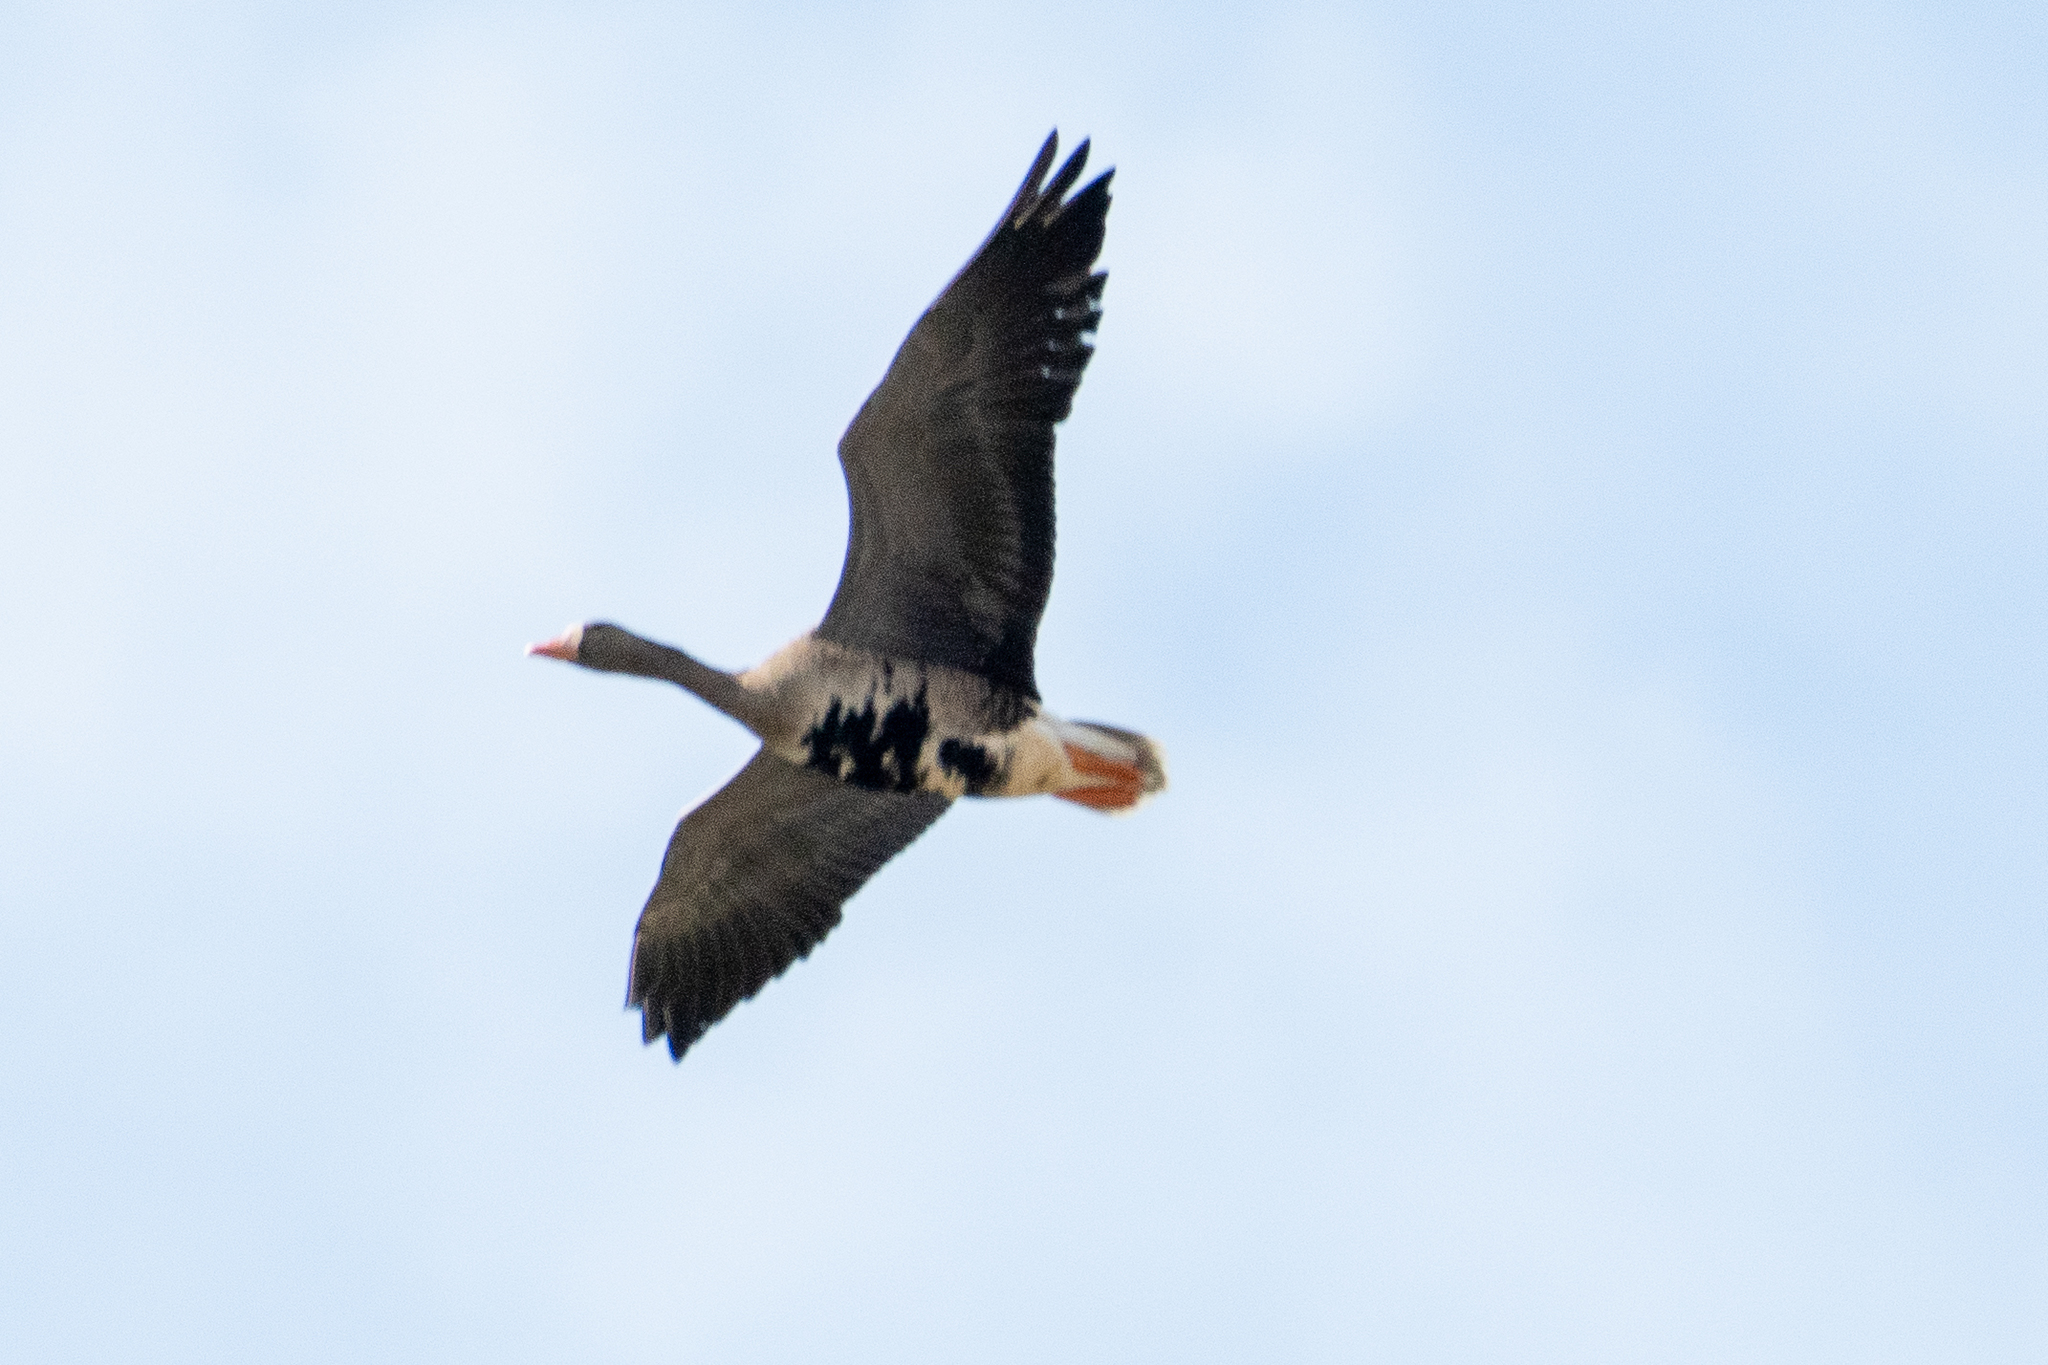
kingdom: Animalia
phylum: Chordata
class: Aves
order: Anseriformes
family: Anatidae
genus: Anser
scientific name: Anser albifrons
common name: Greater white-fronted goose
